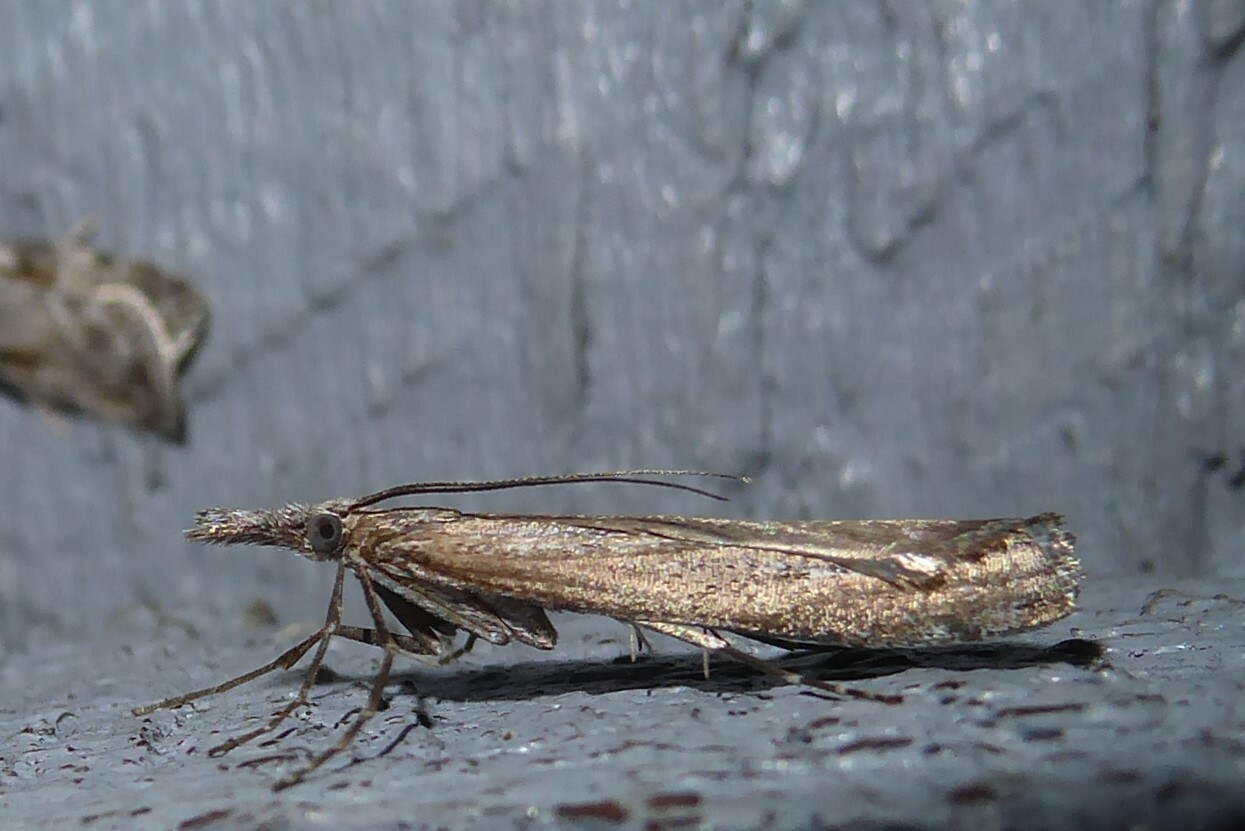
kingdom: Animalia
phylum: Arthropoda
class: Insecta
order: Lepidoptera
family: Crambidae
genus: Orocrambus
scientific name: Orocrambus cyclopicus
